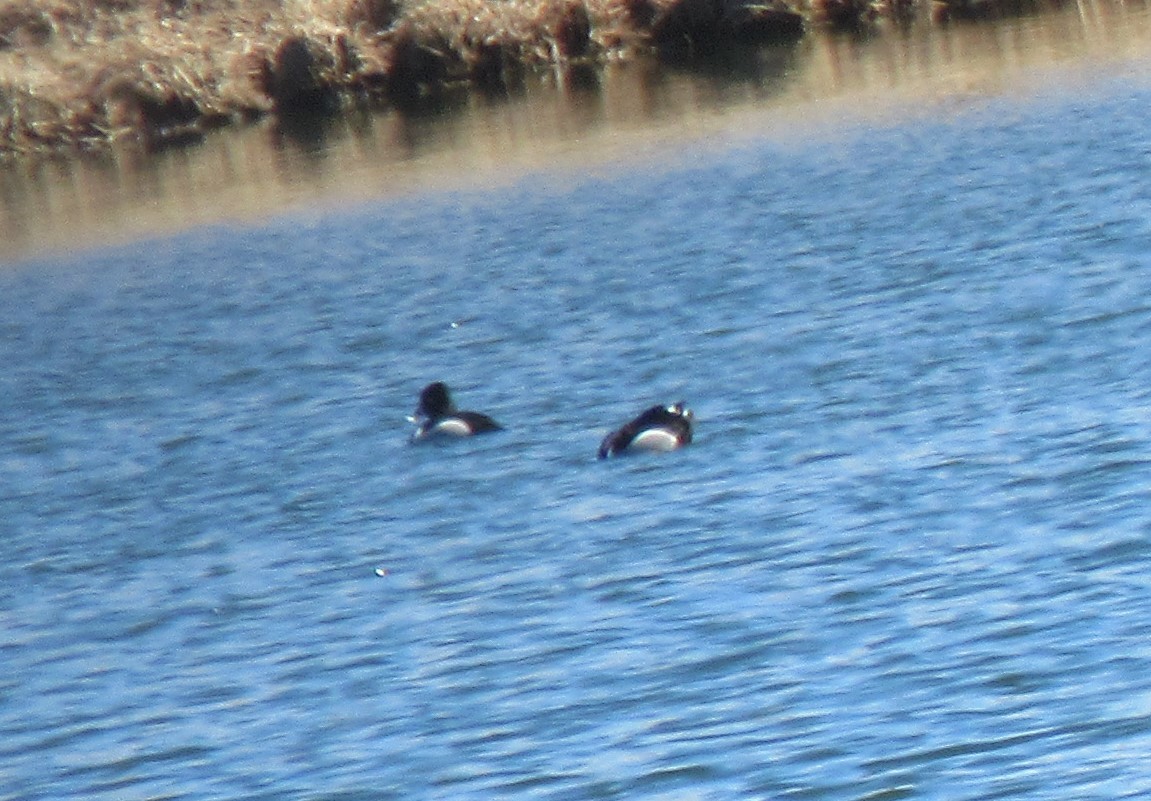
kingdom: Animalia
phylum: Chordata
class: Aves
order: Anseriformes
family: Anatidae
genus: Aythya
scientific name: Aythya collaris
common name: Ring-necked duck
